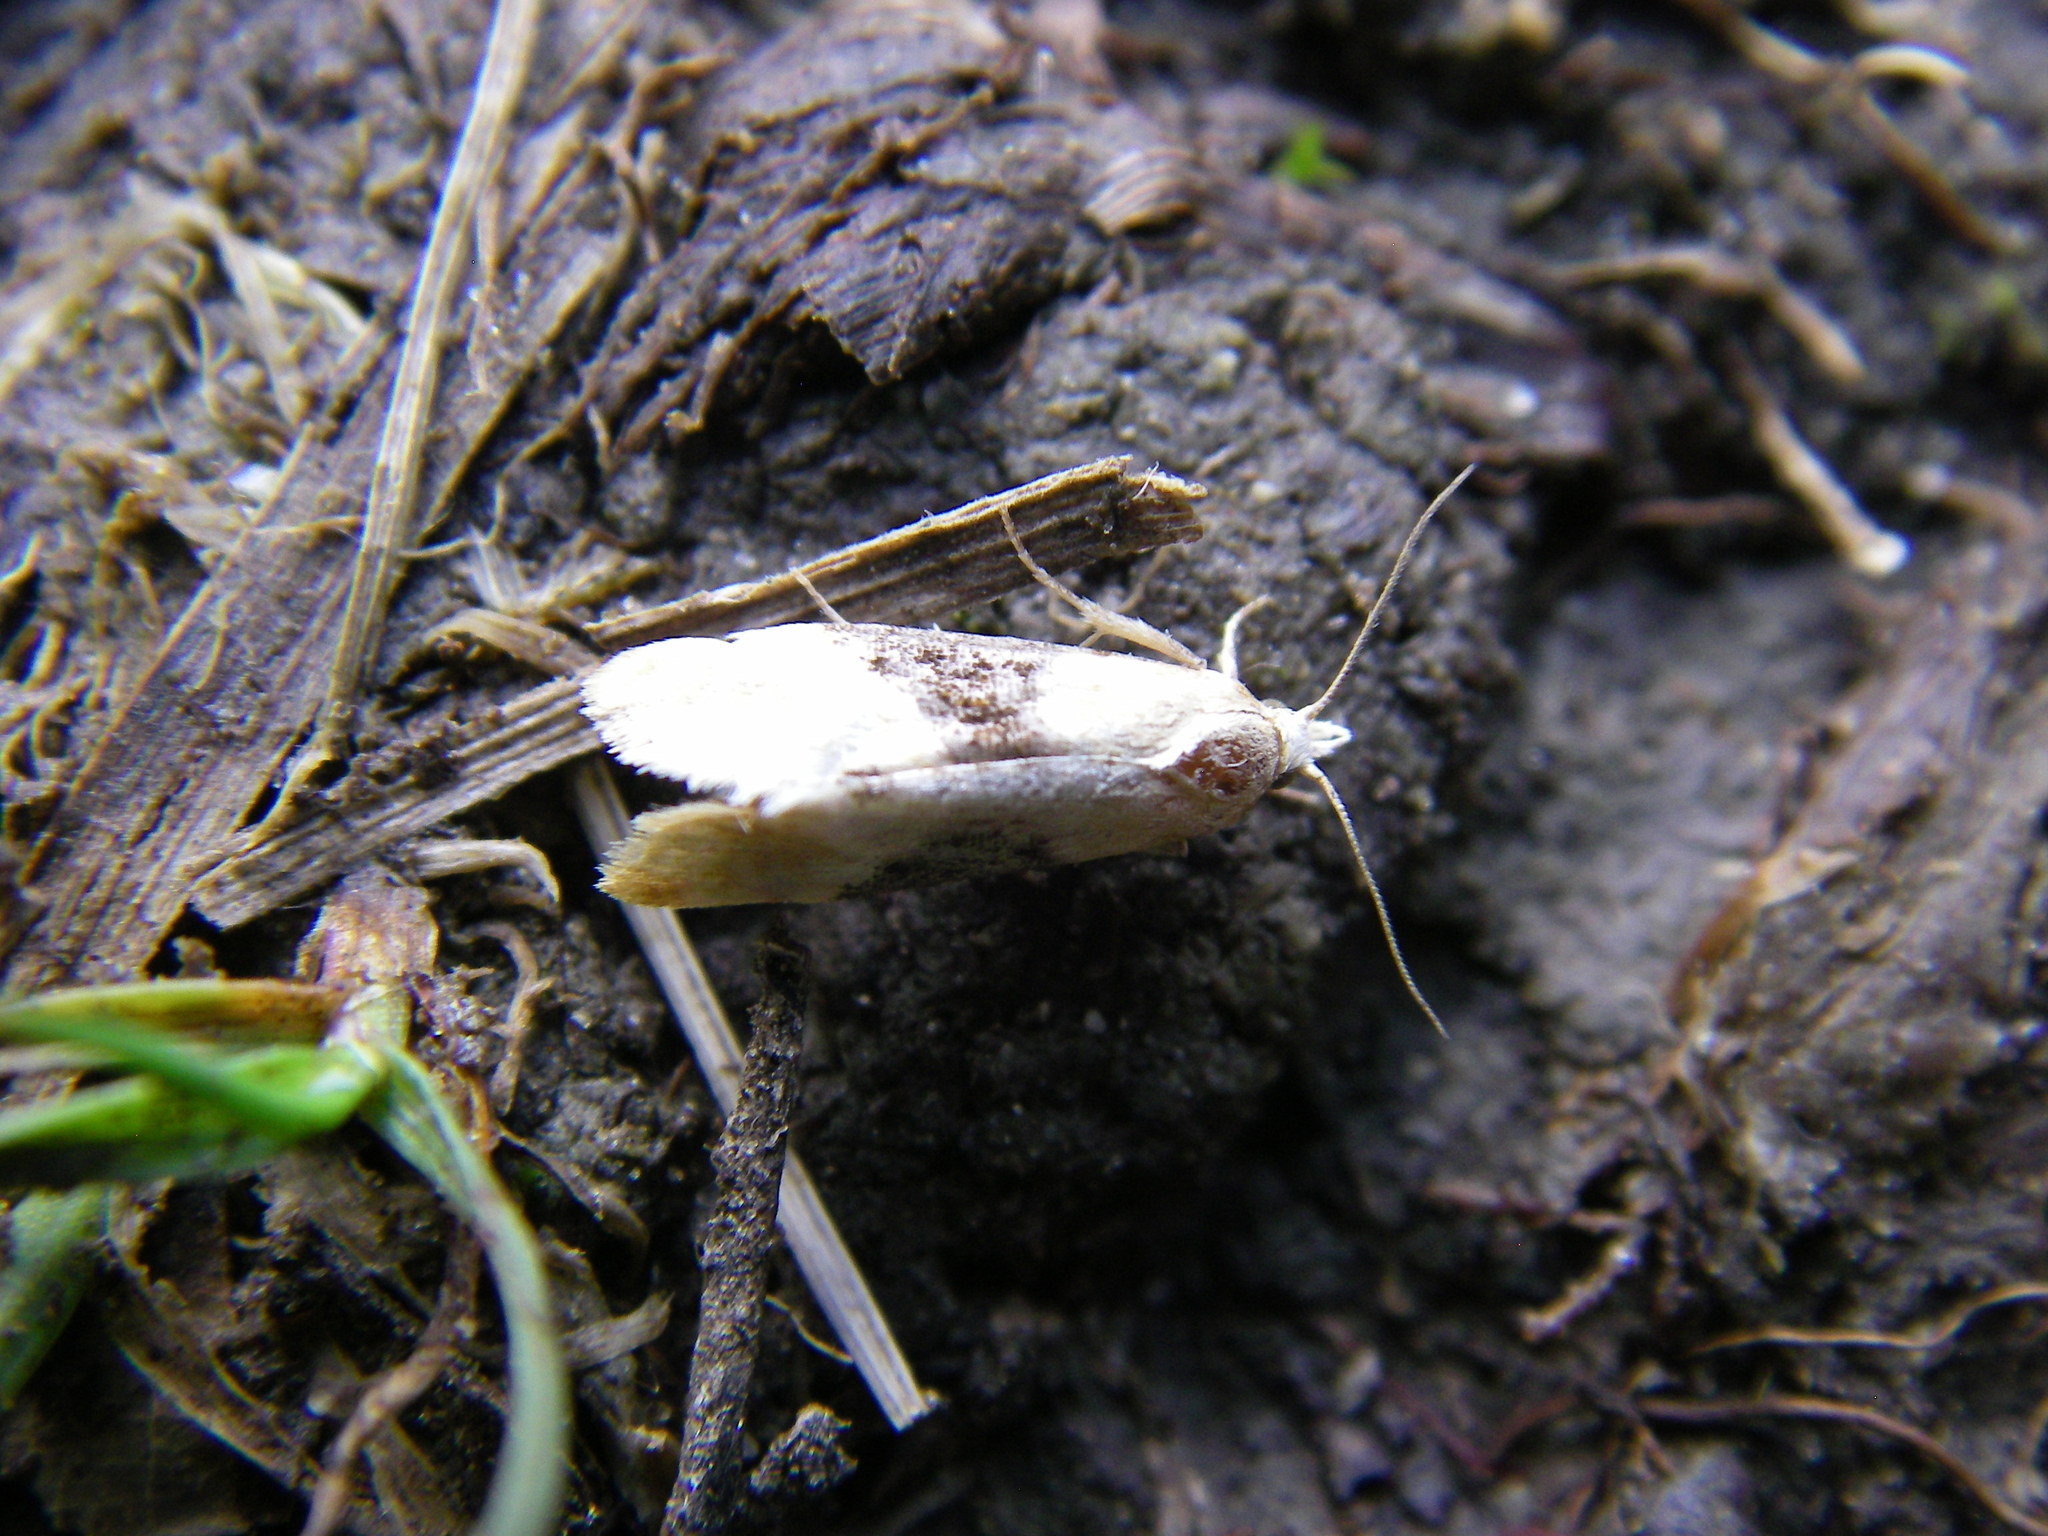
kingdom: Animalia
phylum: Arthropoda
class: Insecta
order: Lepidoptera
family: Tortricidae
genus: Eupoecilia
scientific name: Eupoecilia ambiguella
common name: Vine moth
